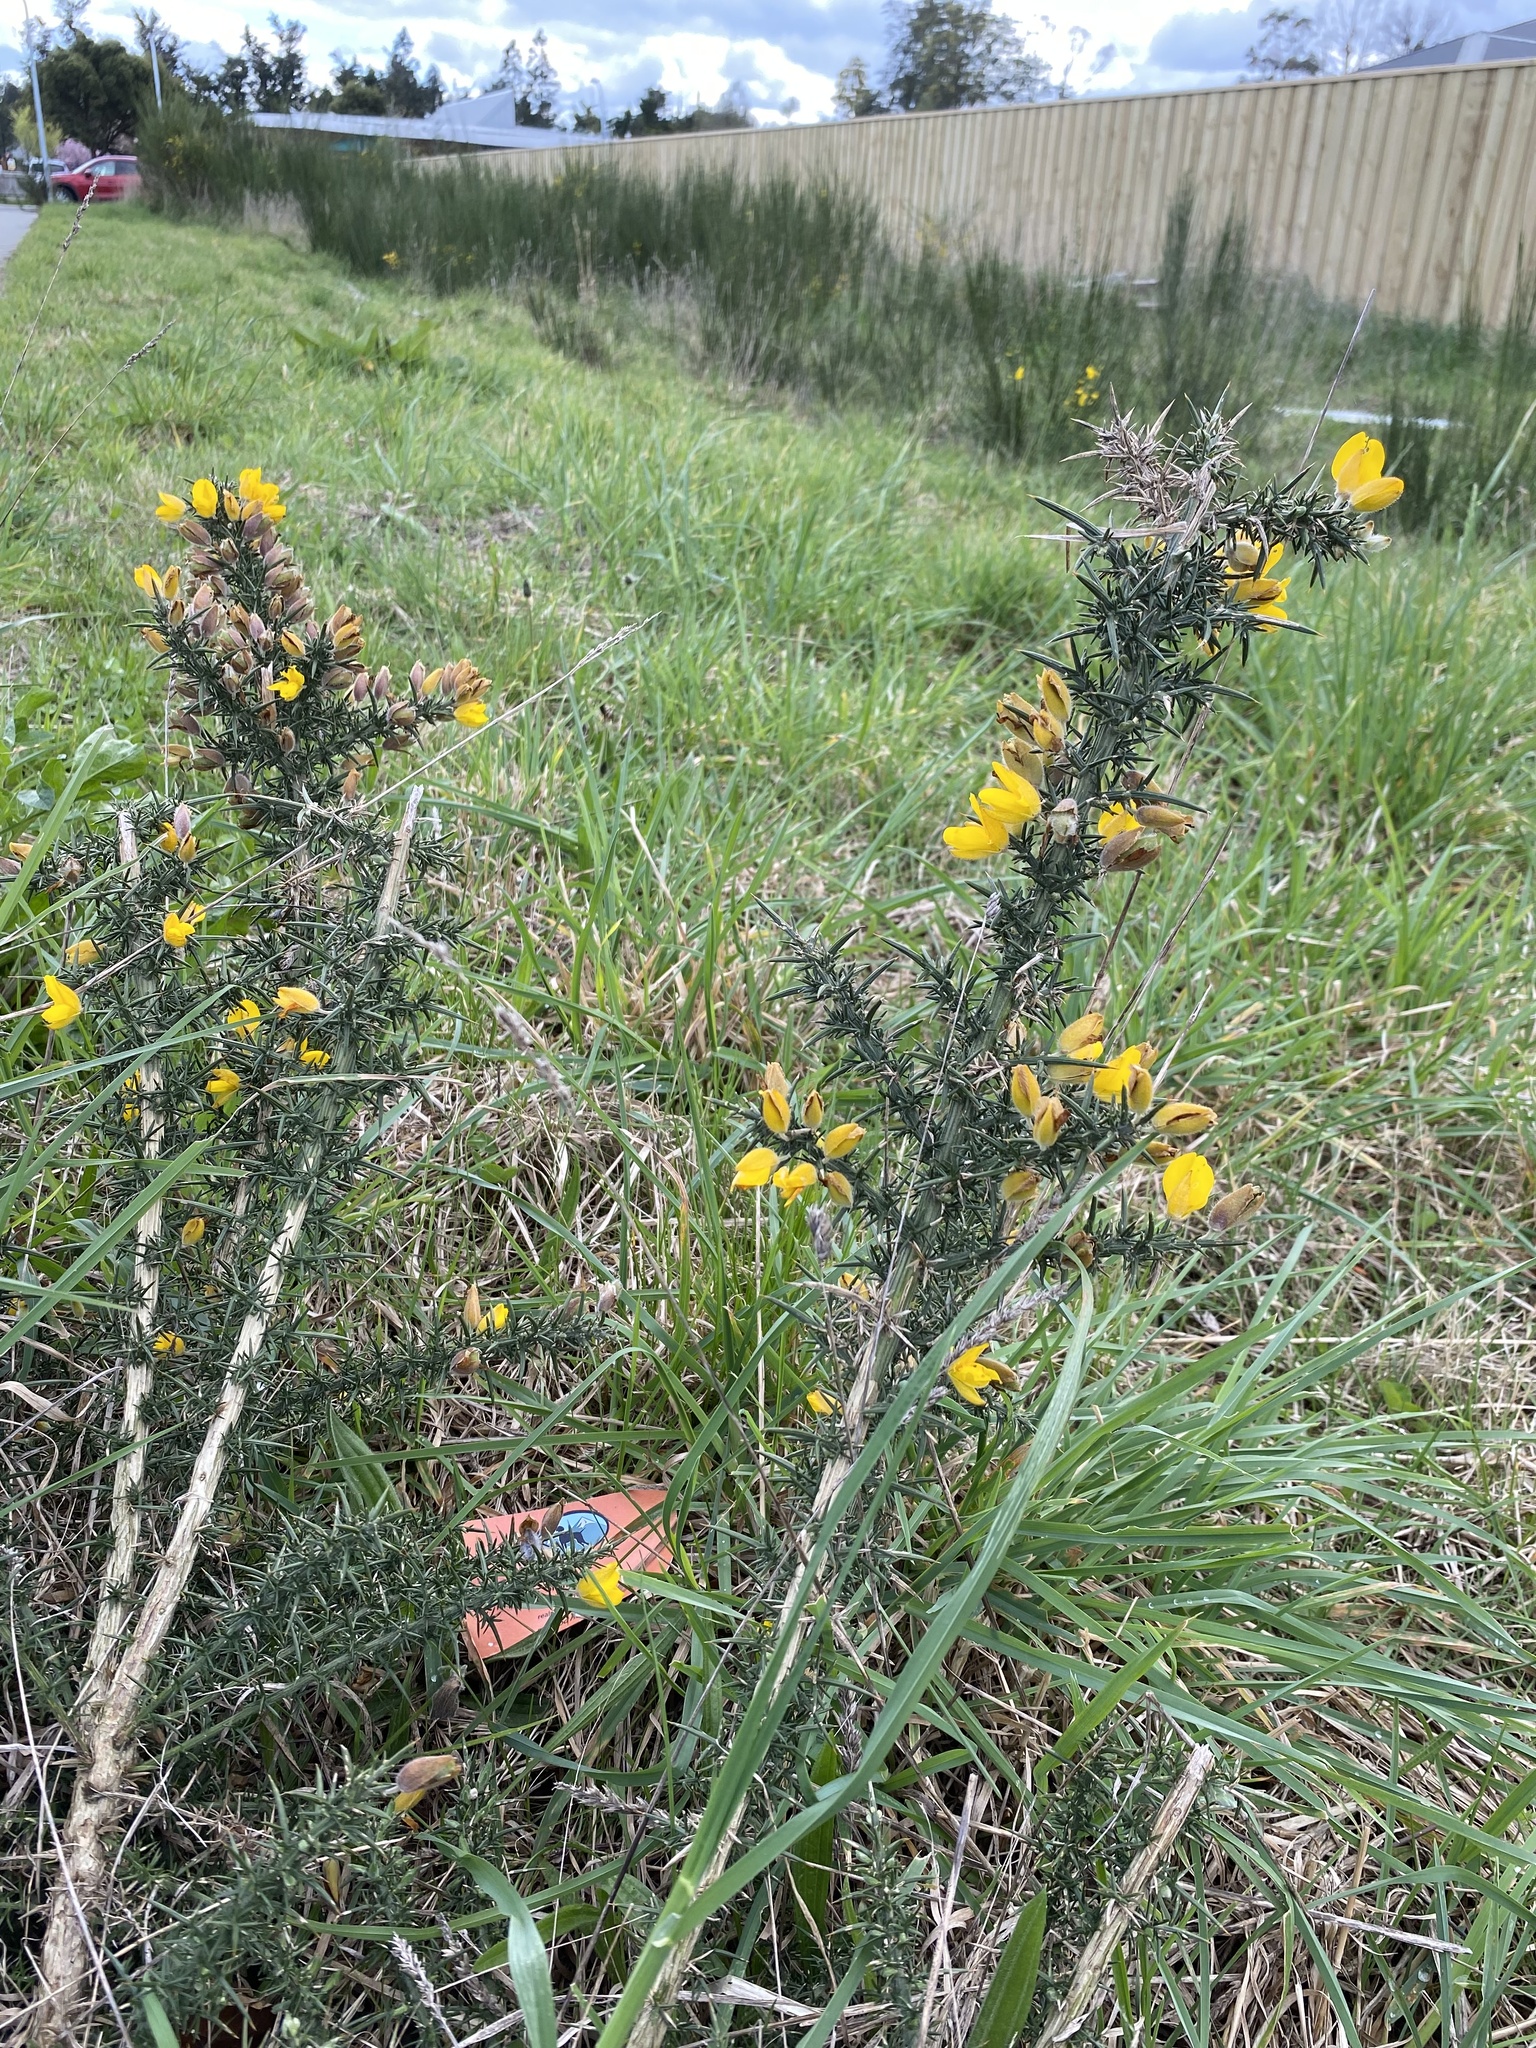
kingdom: Plantae
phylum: Tracheophyta
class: Magnoliopsida
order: Fabales
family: Fabaceae
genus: Ulex
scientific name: Ulex europaeus
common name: Common gorse
